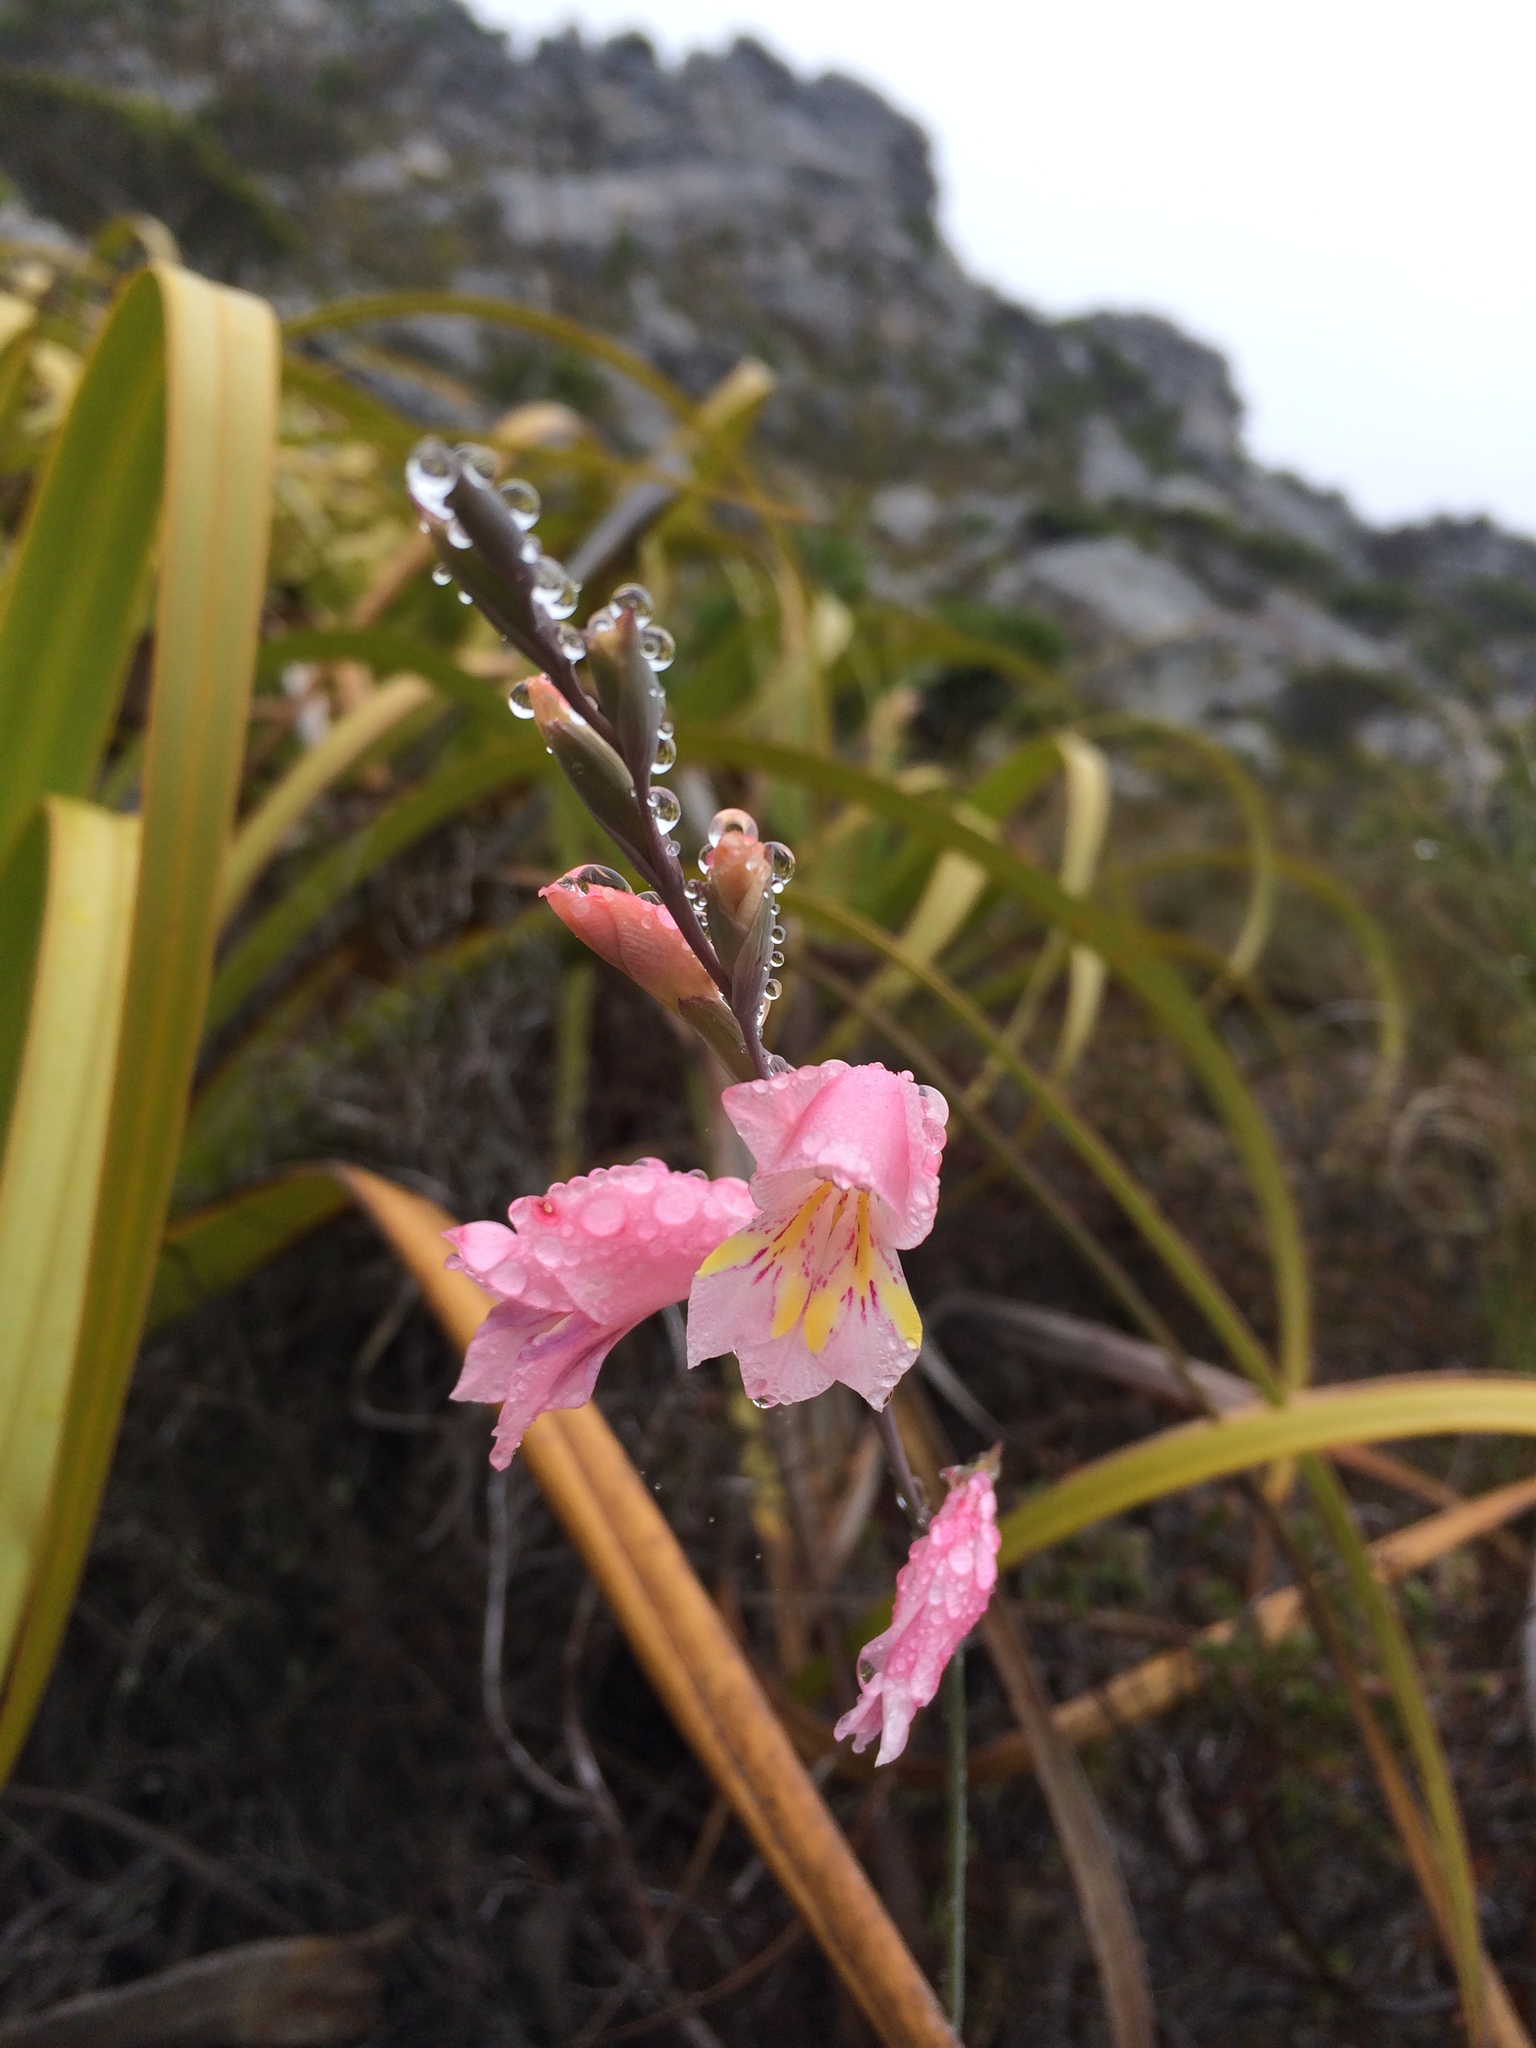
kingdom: Plantae
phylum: Tracheophyta
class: Liliopsida
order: Asparagales
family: Iridaceae
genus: Gladiolus
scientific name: Gladiolus brevifolius
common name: March pypie
